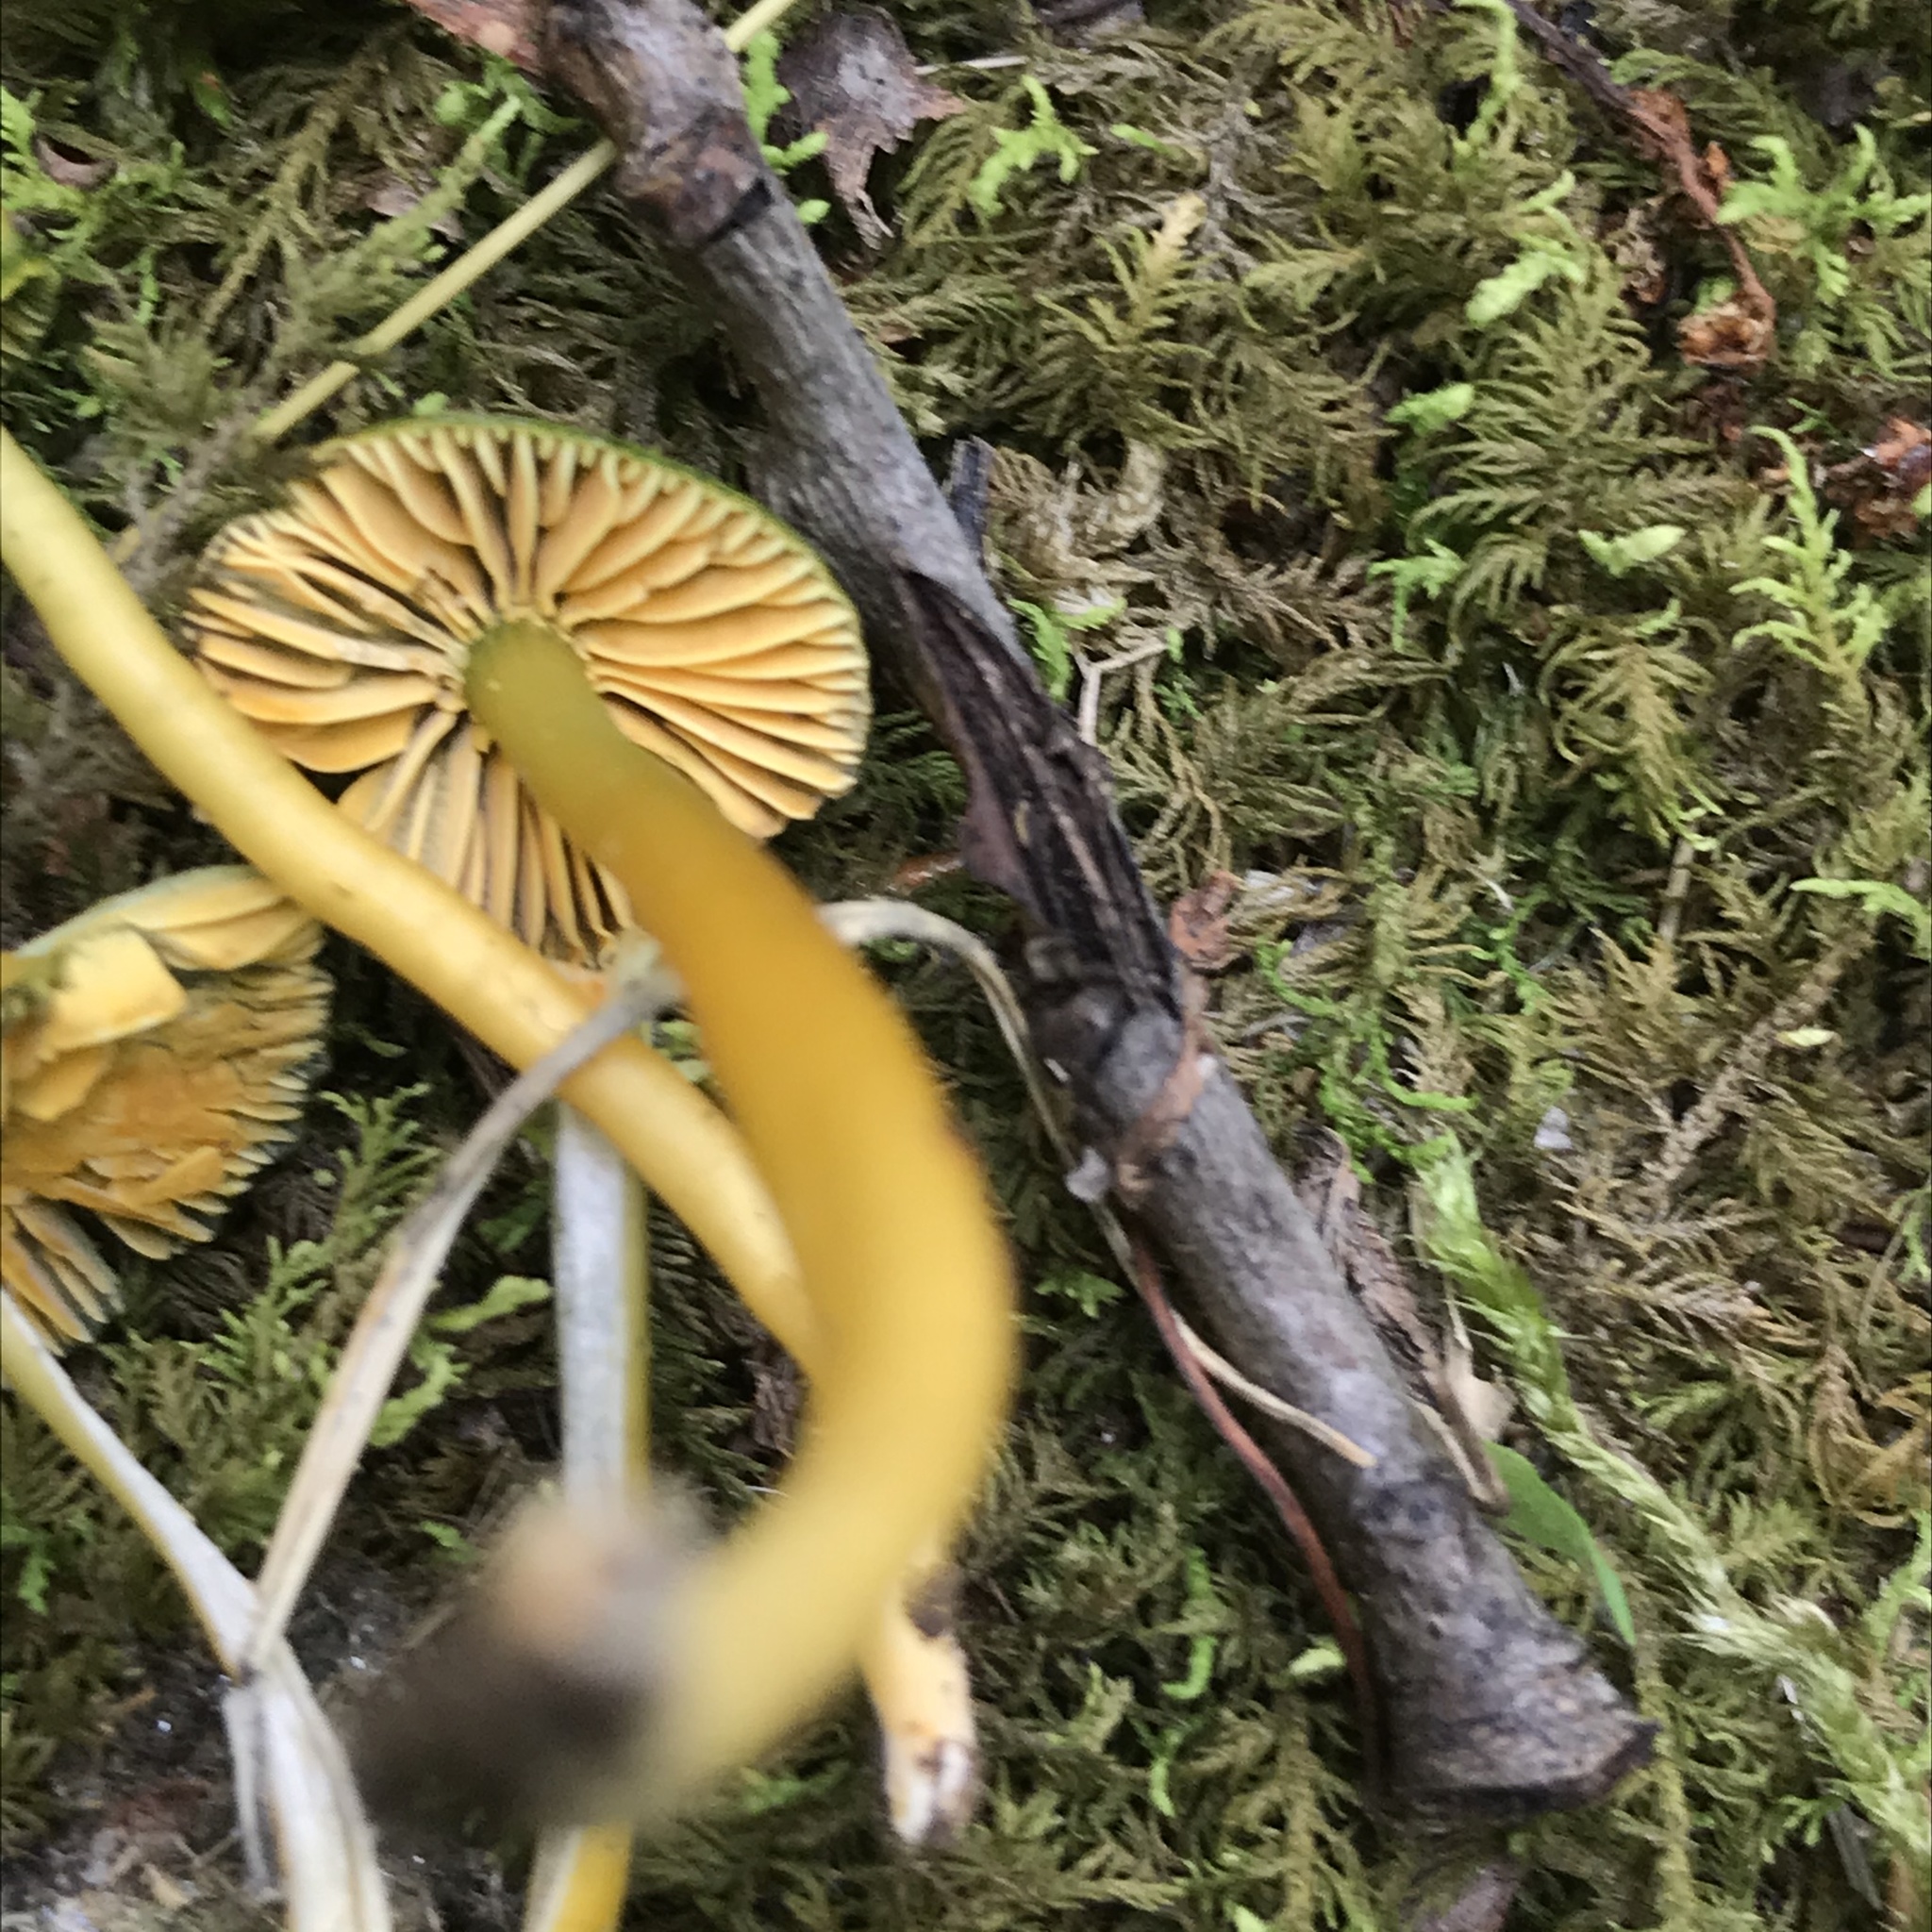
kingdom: Fungi
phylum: Basidiomycota
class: Agaricomycetes
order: Agaricales
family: Hygrophoraceae
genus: Gliophorus
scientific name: Gliophorus psittacinus
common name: Parrot wax-cap
